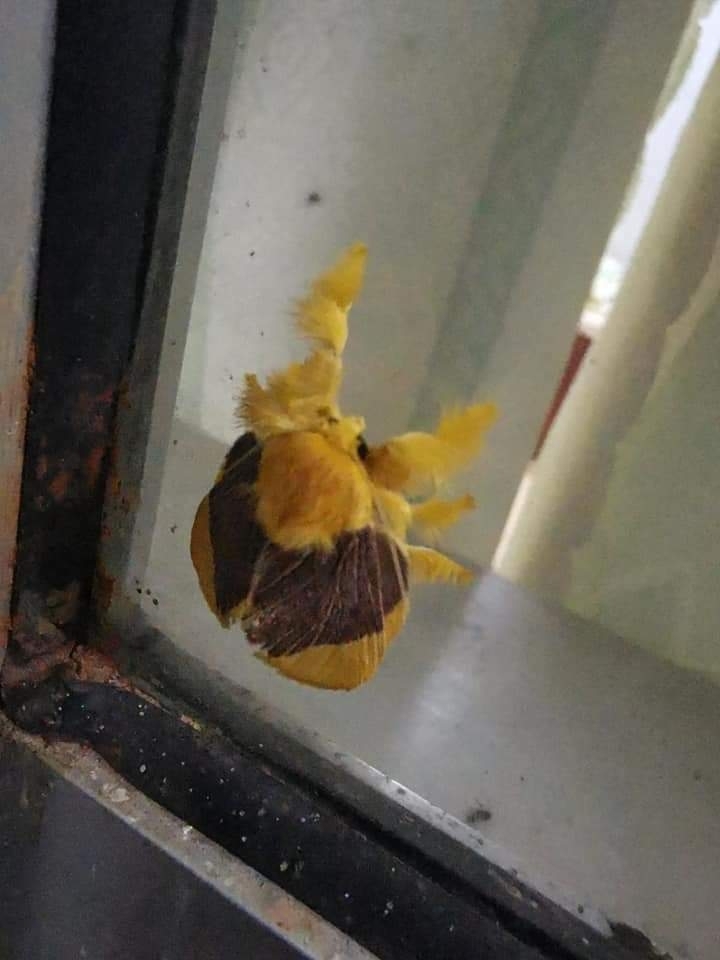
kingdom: Animalia
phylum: Arthropoda
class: Insecta
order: Lepidoptera
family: Limacodidae
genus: Barisania
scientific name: Barisania honeyi
